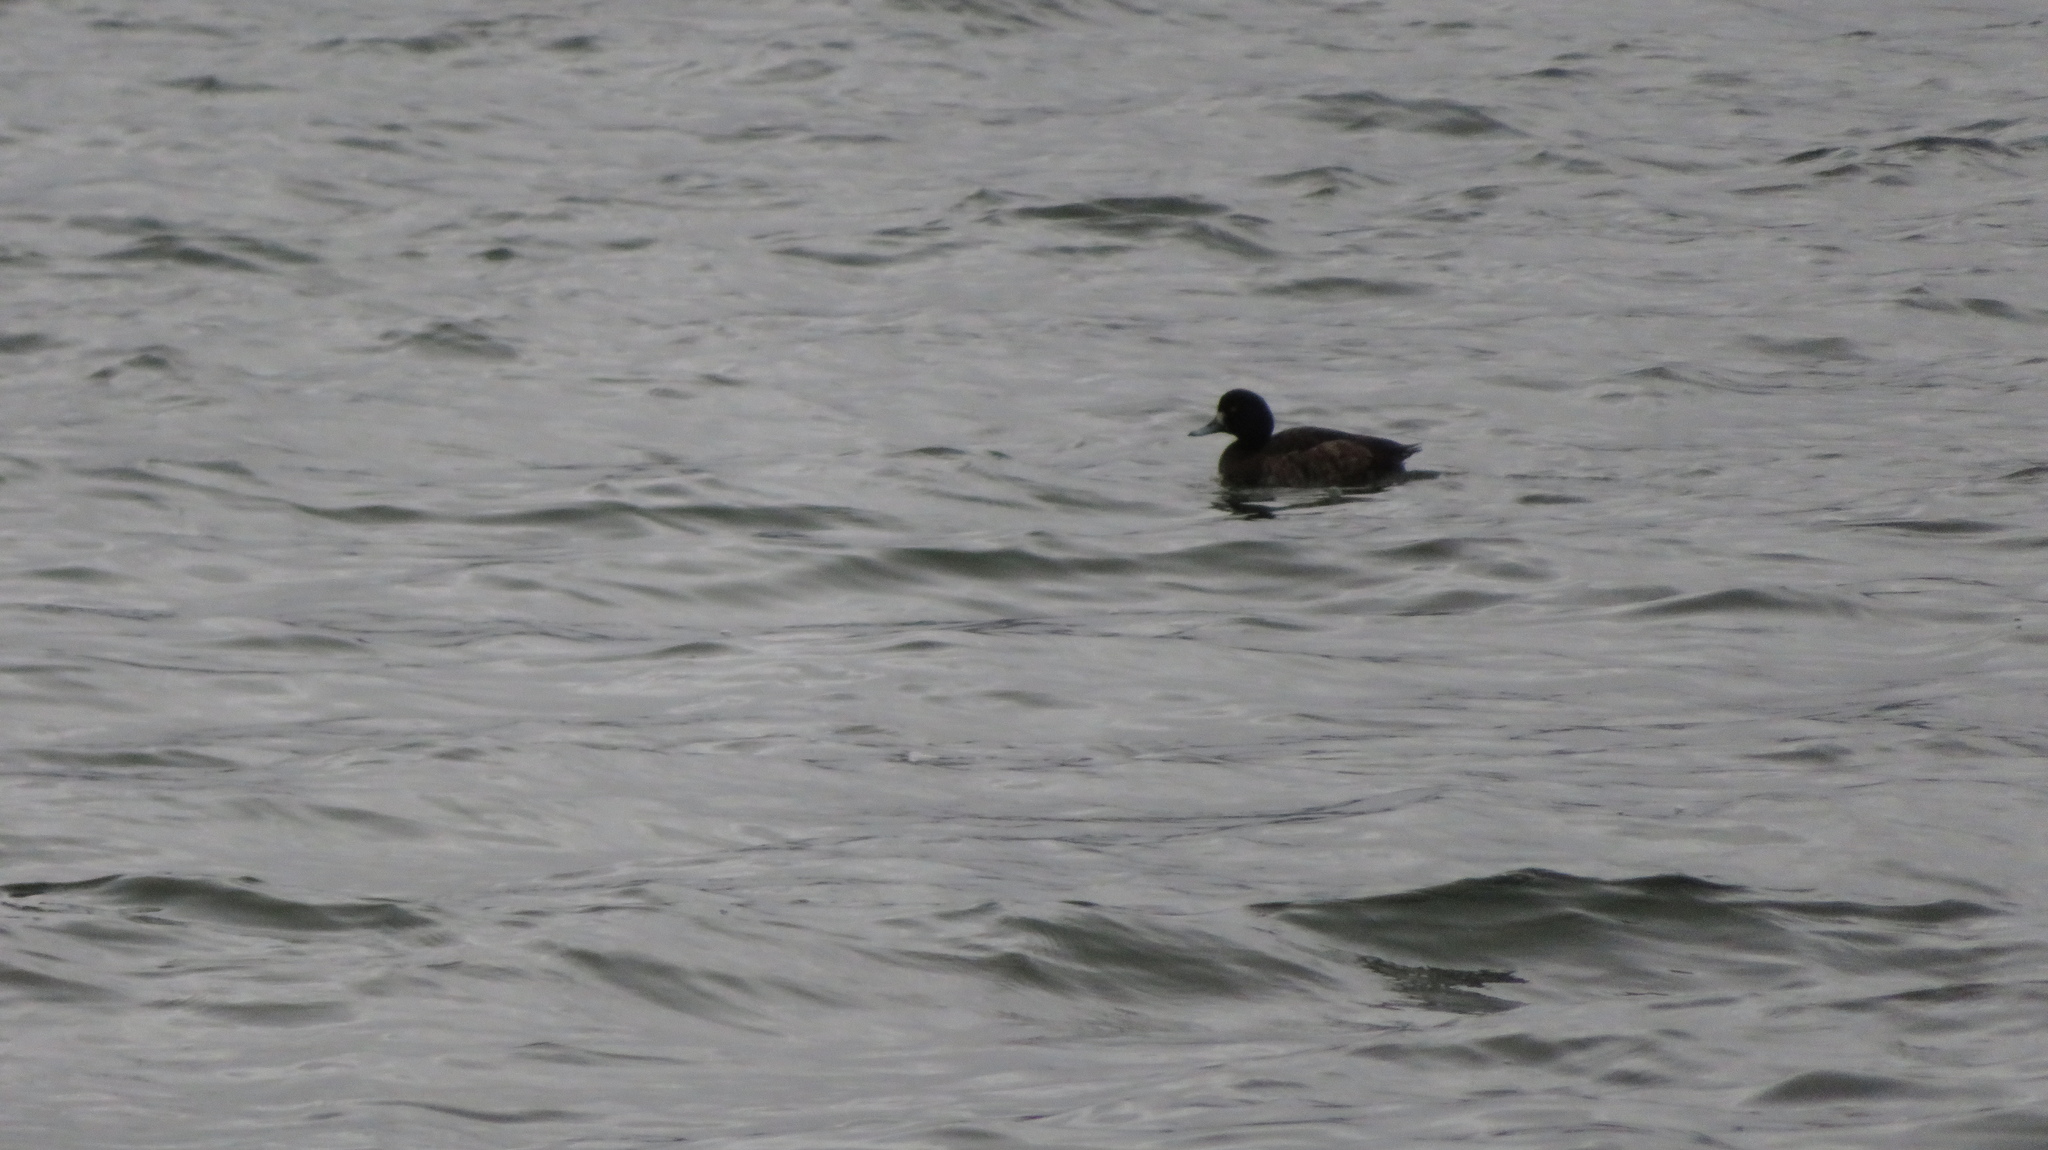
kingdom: Animalia
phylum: Chordata
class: Aves
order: Anseriformes
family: Anatidae
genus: Aythya
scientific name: Aythya marila
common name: Greater scaup
